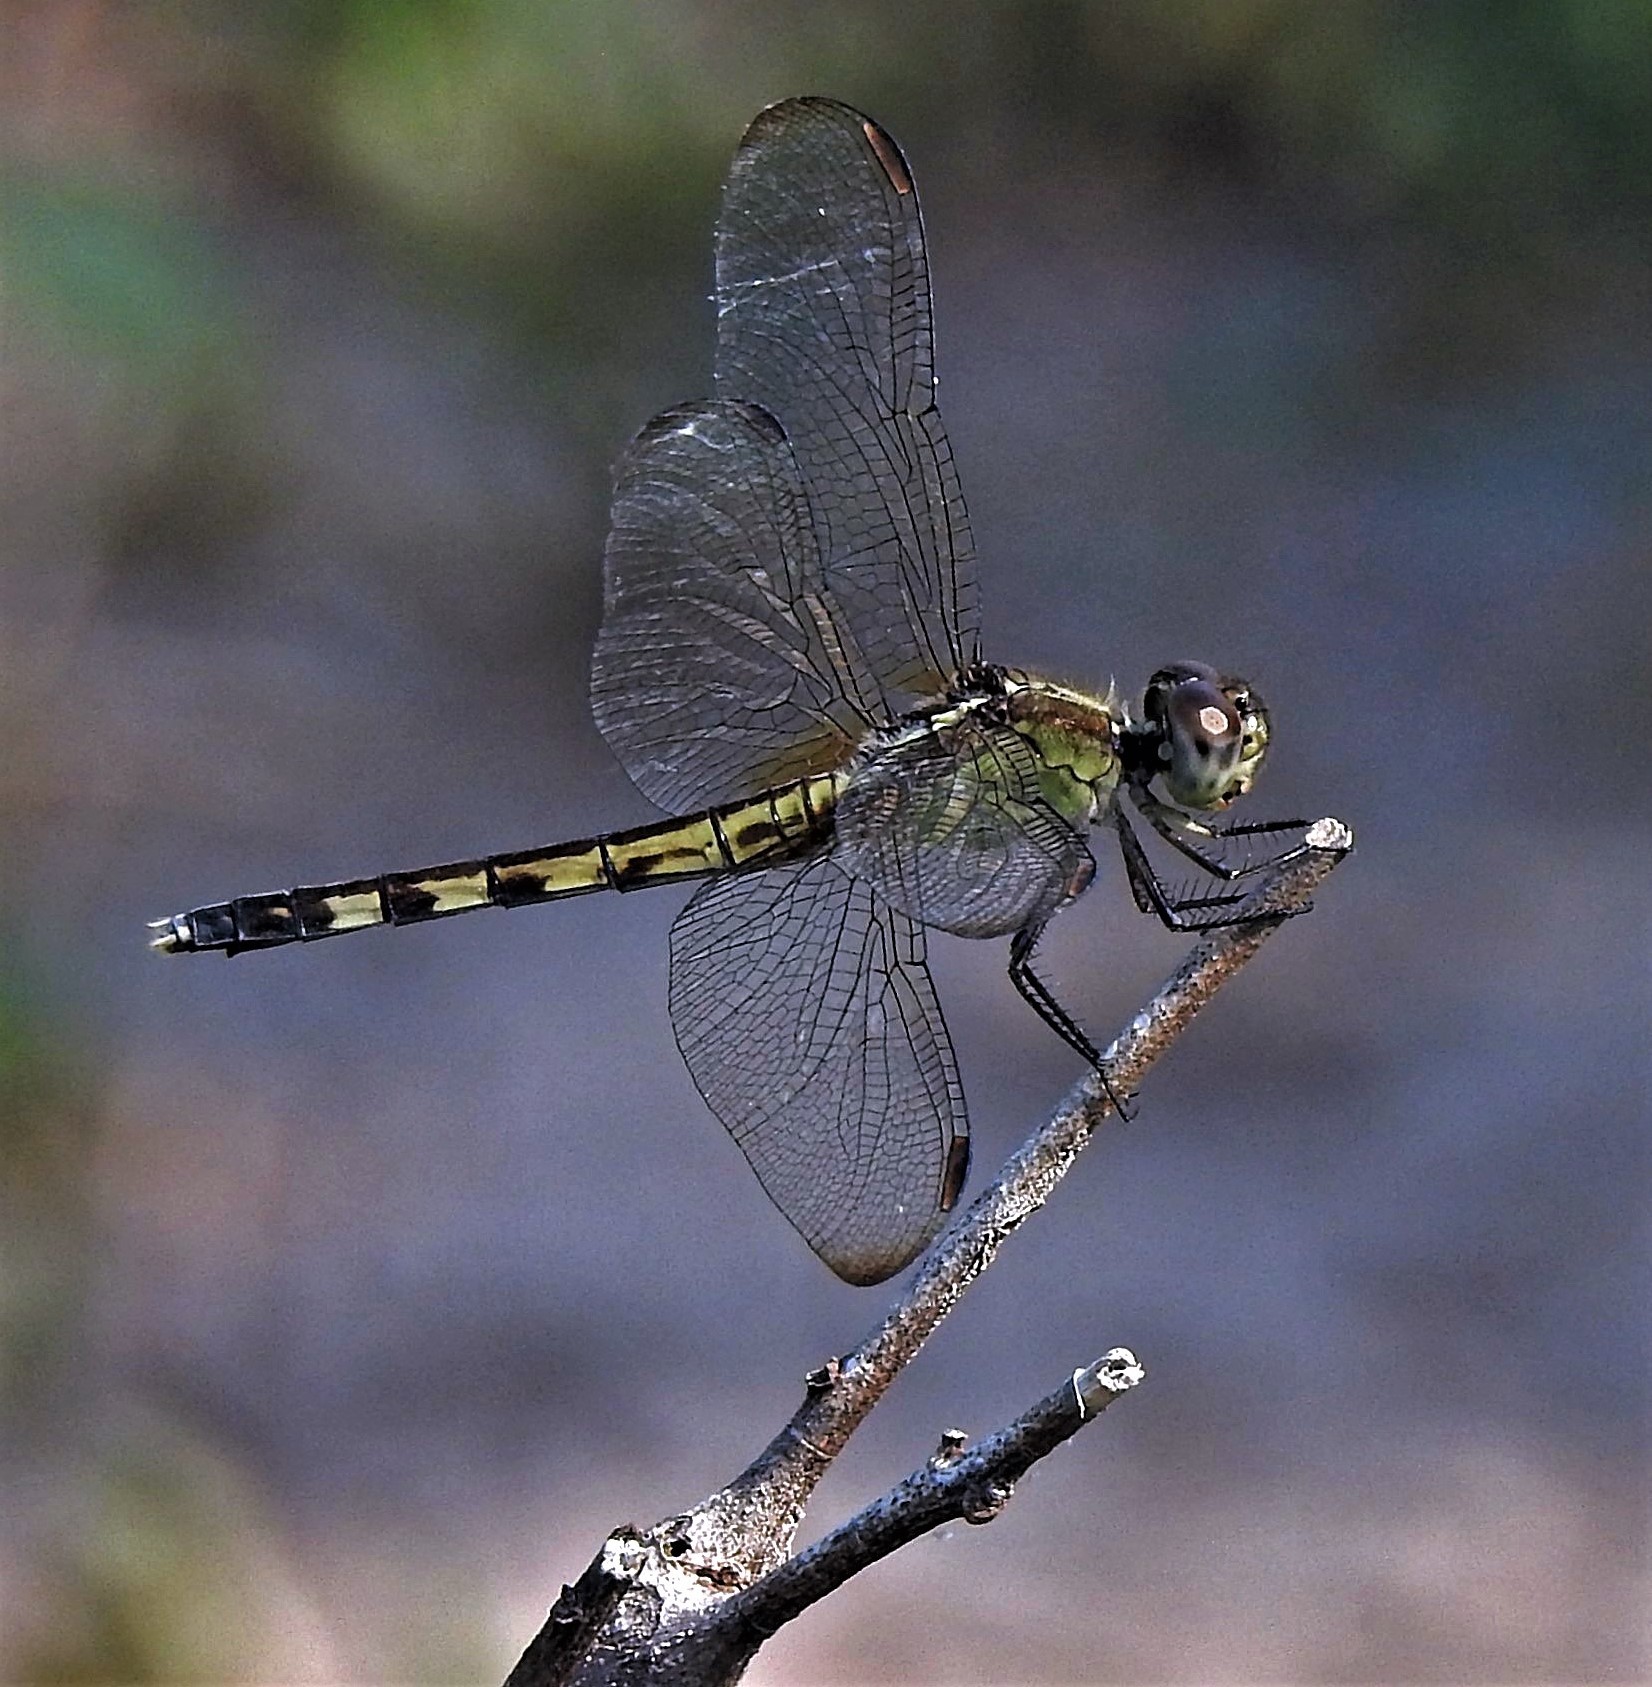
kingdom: Animalia
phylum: Arthropoda
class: Insecta
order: Odonata
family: Libellulidae
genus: Erythrodiplax
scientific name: Erythrodiplax umbrata
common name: Band-winged dragonlet
